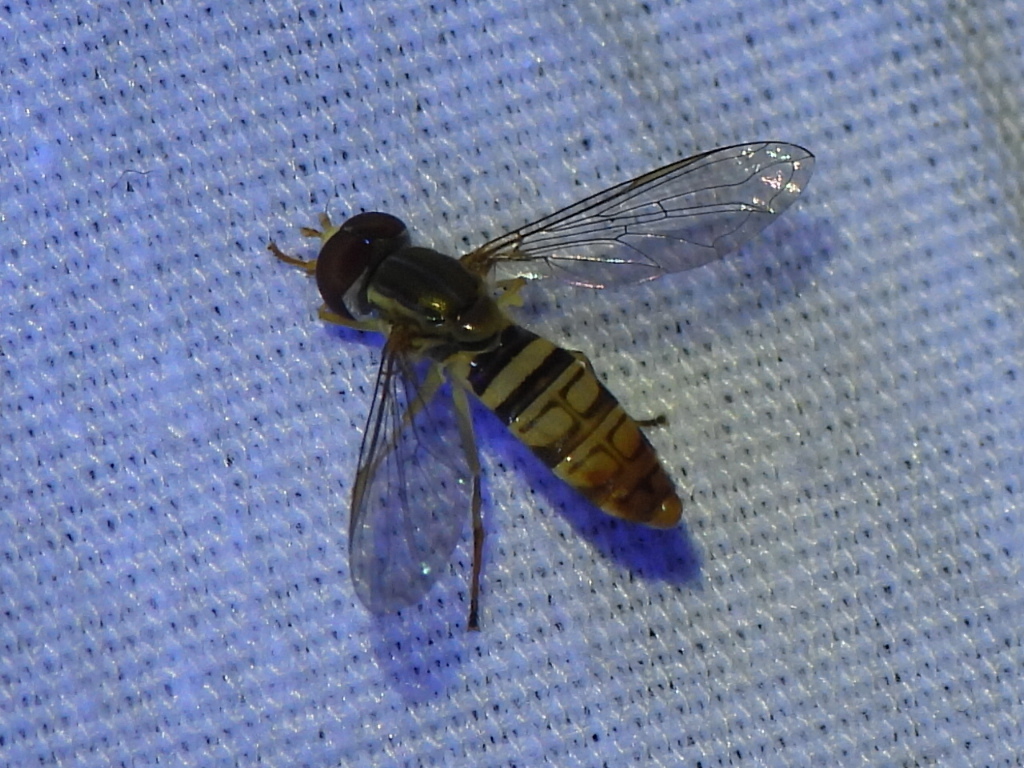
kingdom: Animalia
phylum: Arthropoda
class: Insecta
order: Diptera
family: Syrphidae
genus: Toxomerus
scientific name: Toxomerus politus
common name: Maize calligrapher
